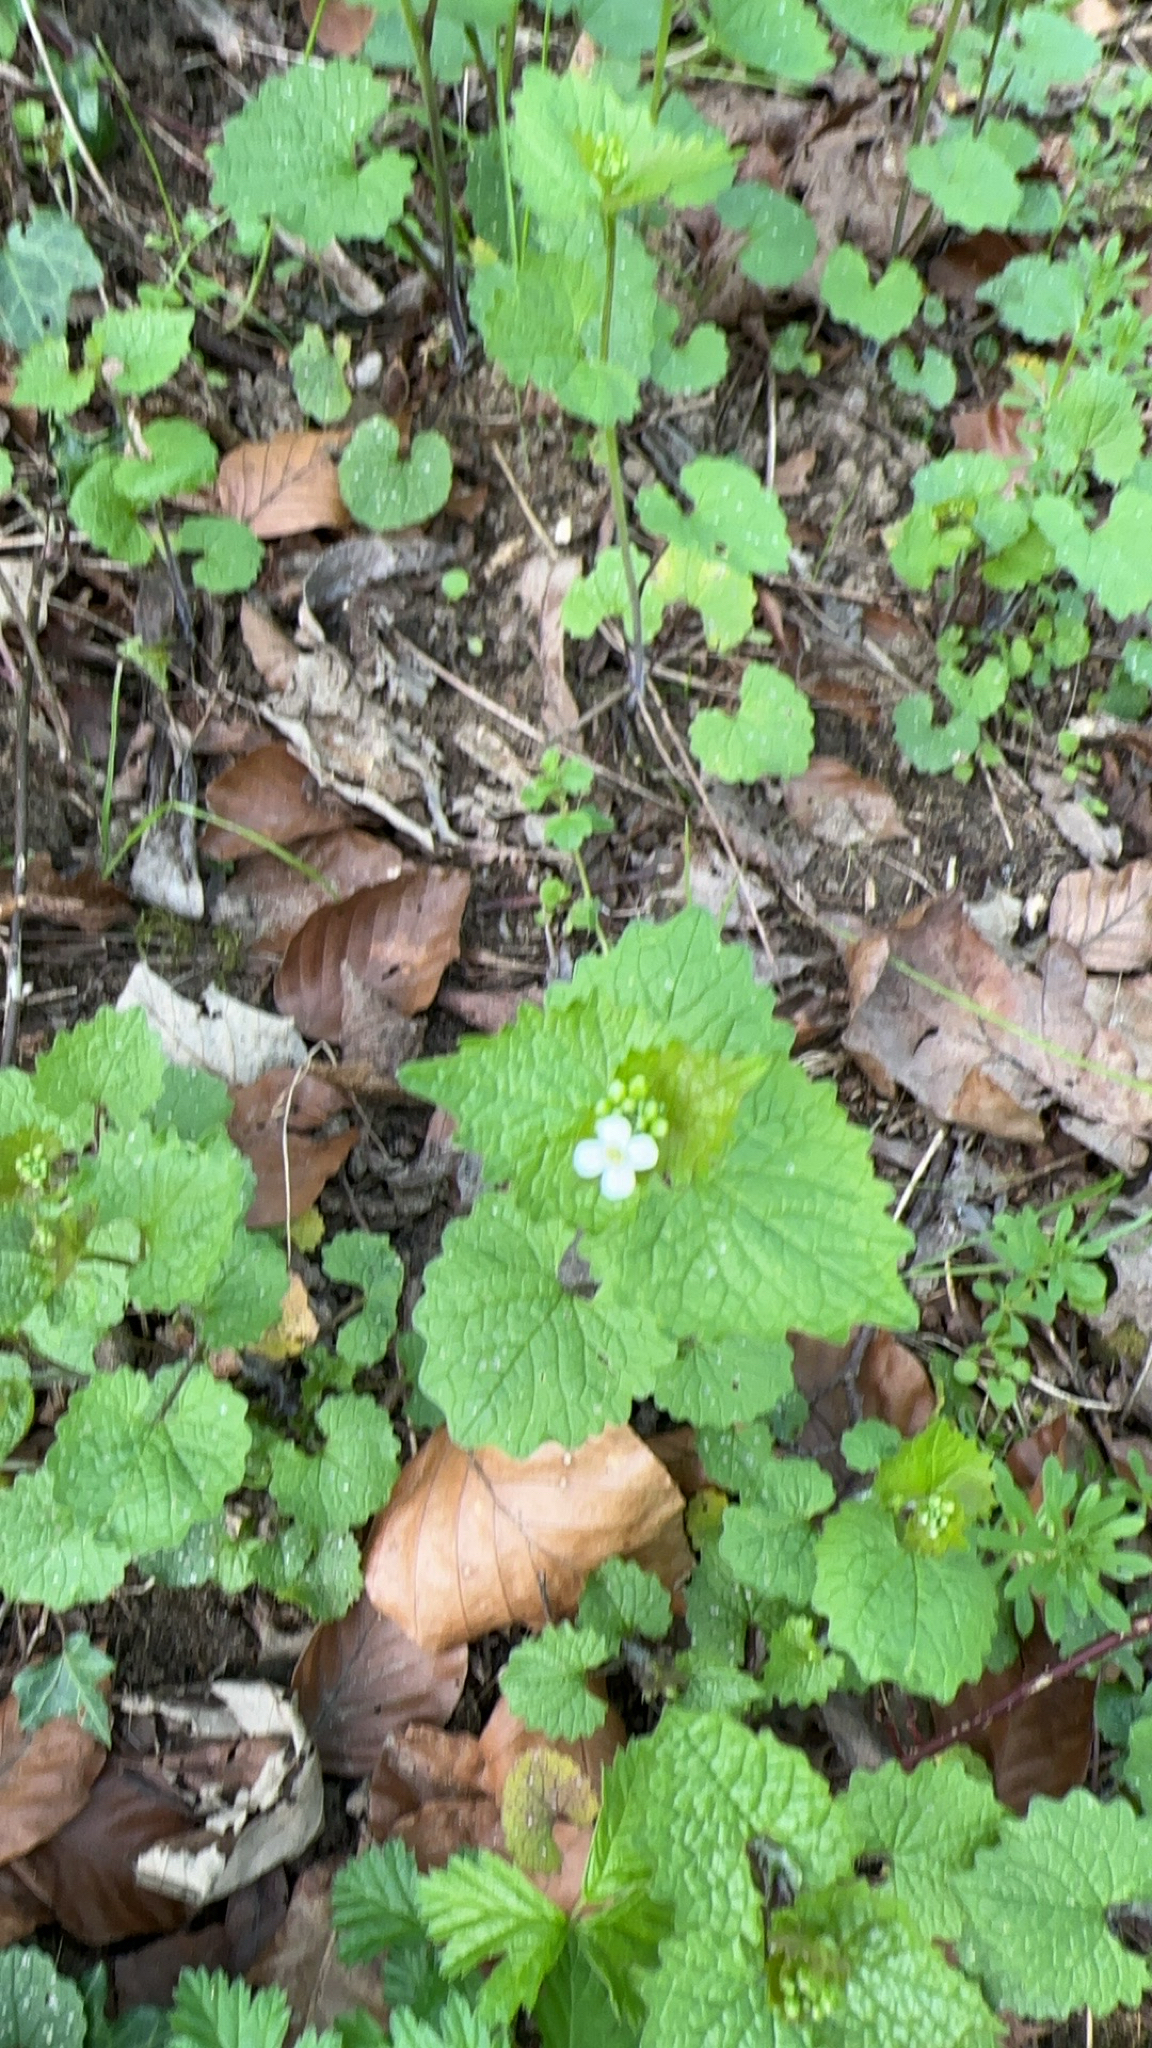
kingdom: Plantae
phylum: Tracheophyta
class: Magnoliopsida
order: Brassicales
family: Brassicaceae
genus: Alliaria
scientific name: Alliaria petiolata
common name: Garlic mustard
